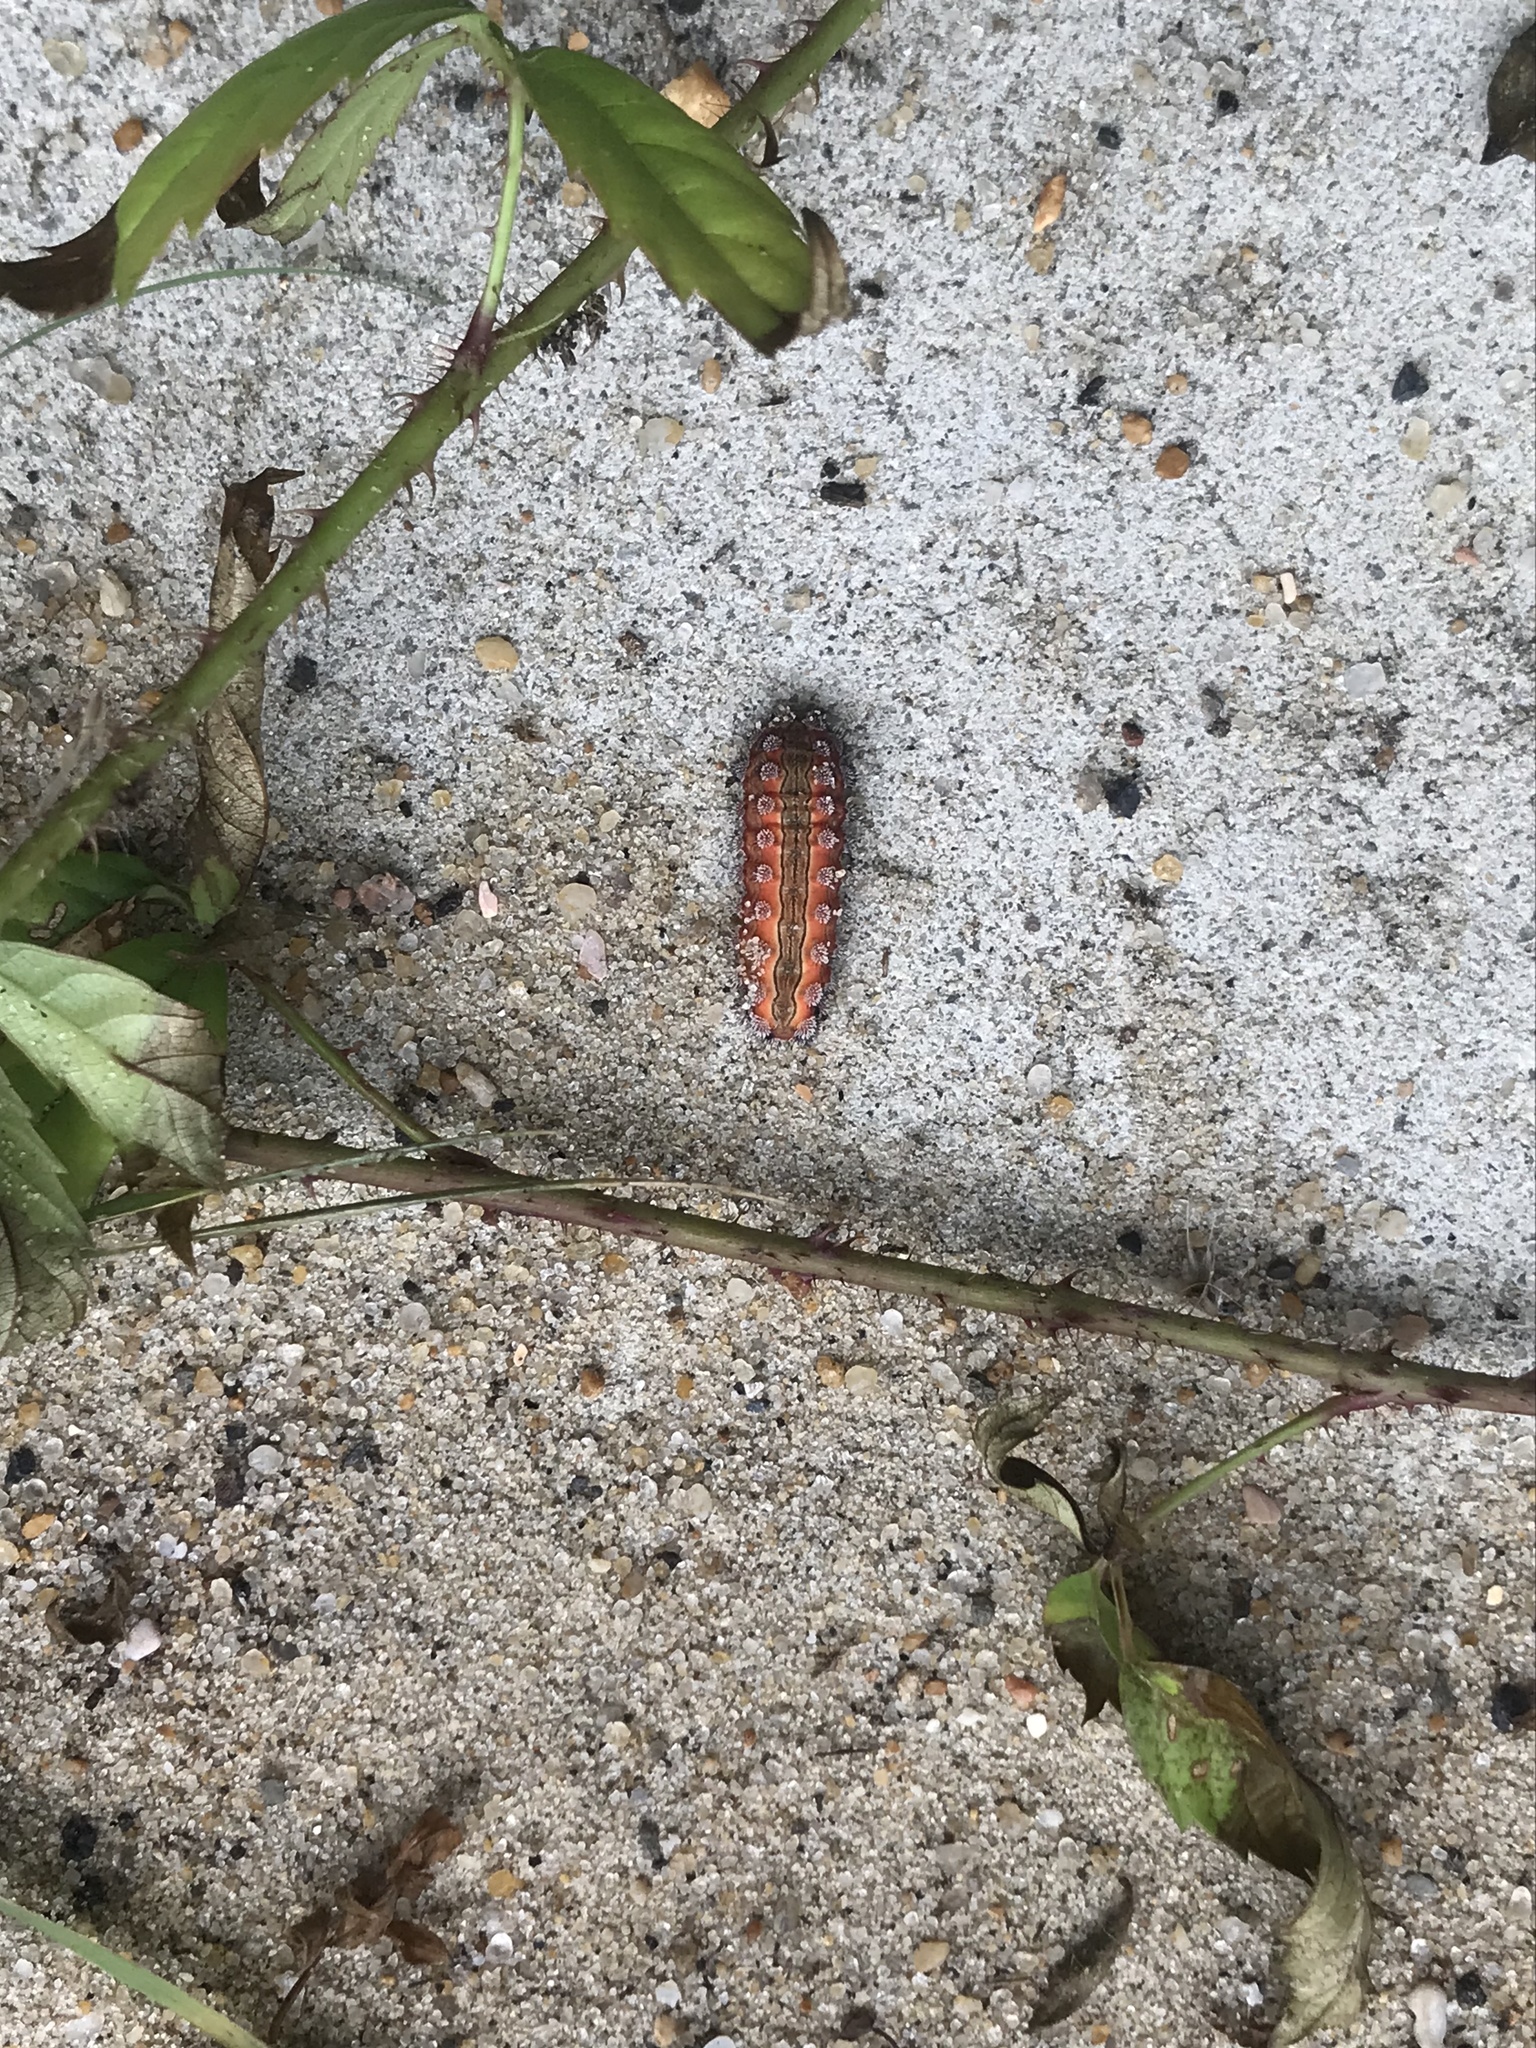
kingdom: Animalia
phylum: Arthropoda
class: Insecta
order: Lepidoptera
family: Limacodidae
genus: Monoleuca
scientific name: Monoleuca semifascia
